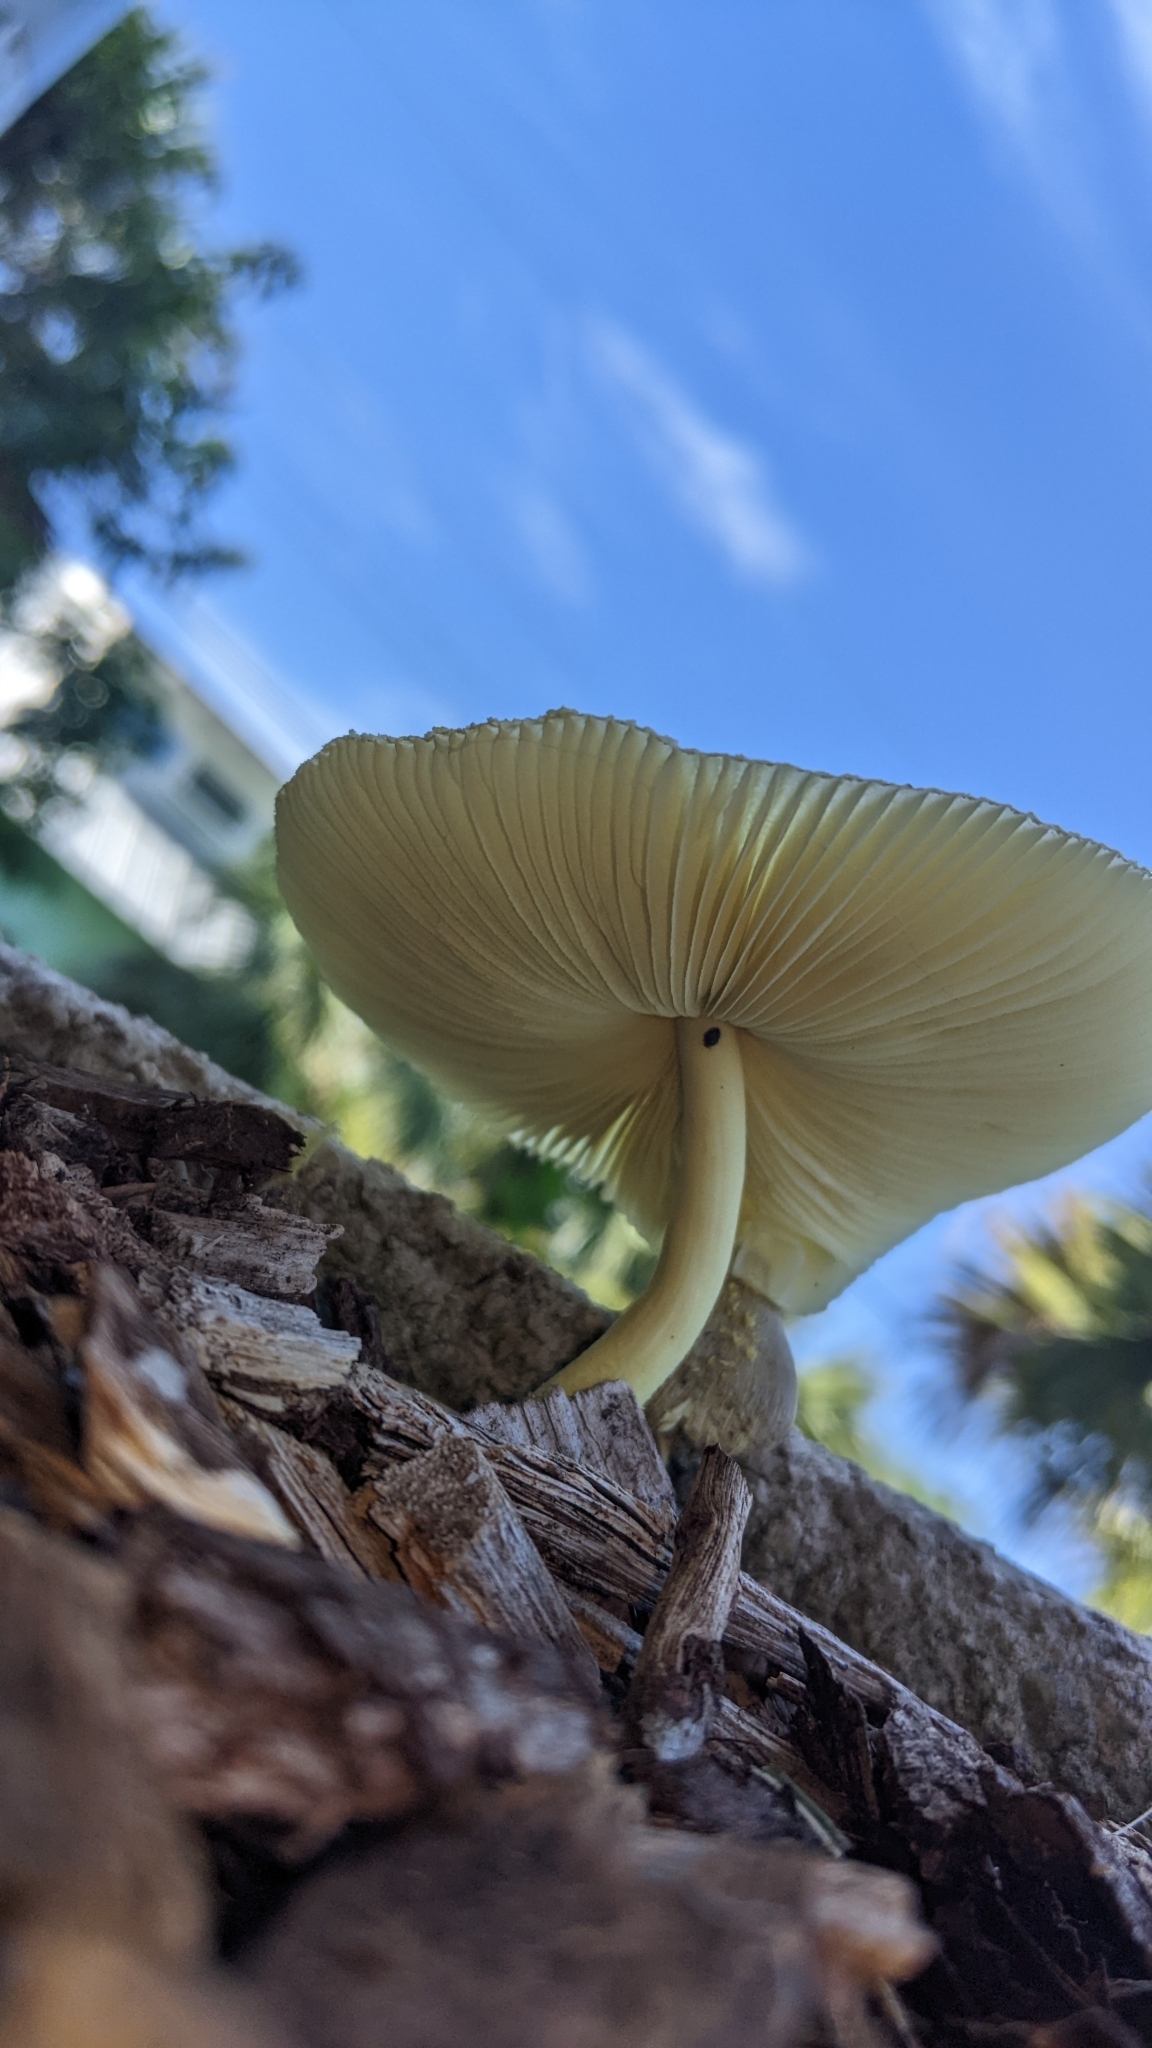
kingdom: Fungi
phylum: Basidiomycota
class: Agaricomycetes
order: Agaricales
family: Agaricaceae
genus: Leucocoprinus
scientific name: Leucocoprinus birnbaumii
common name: Plantpot dapperling
